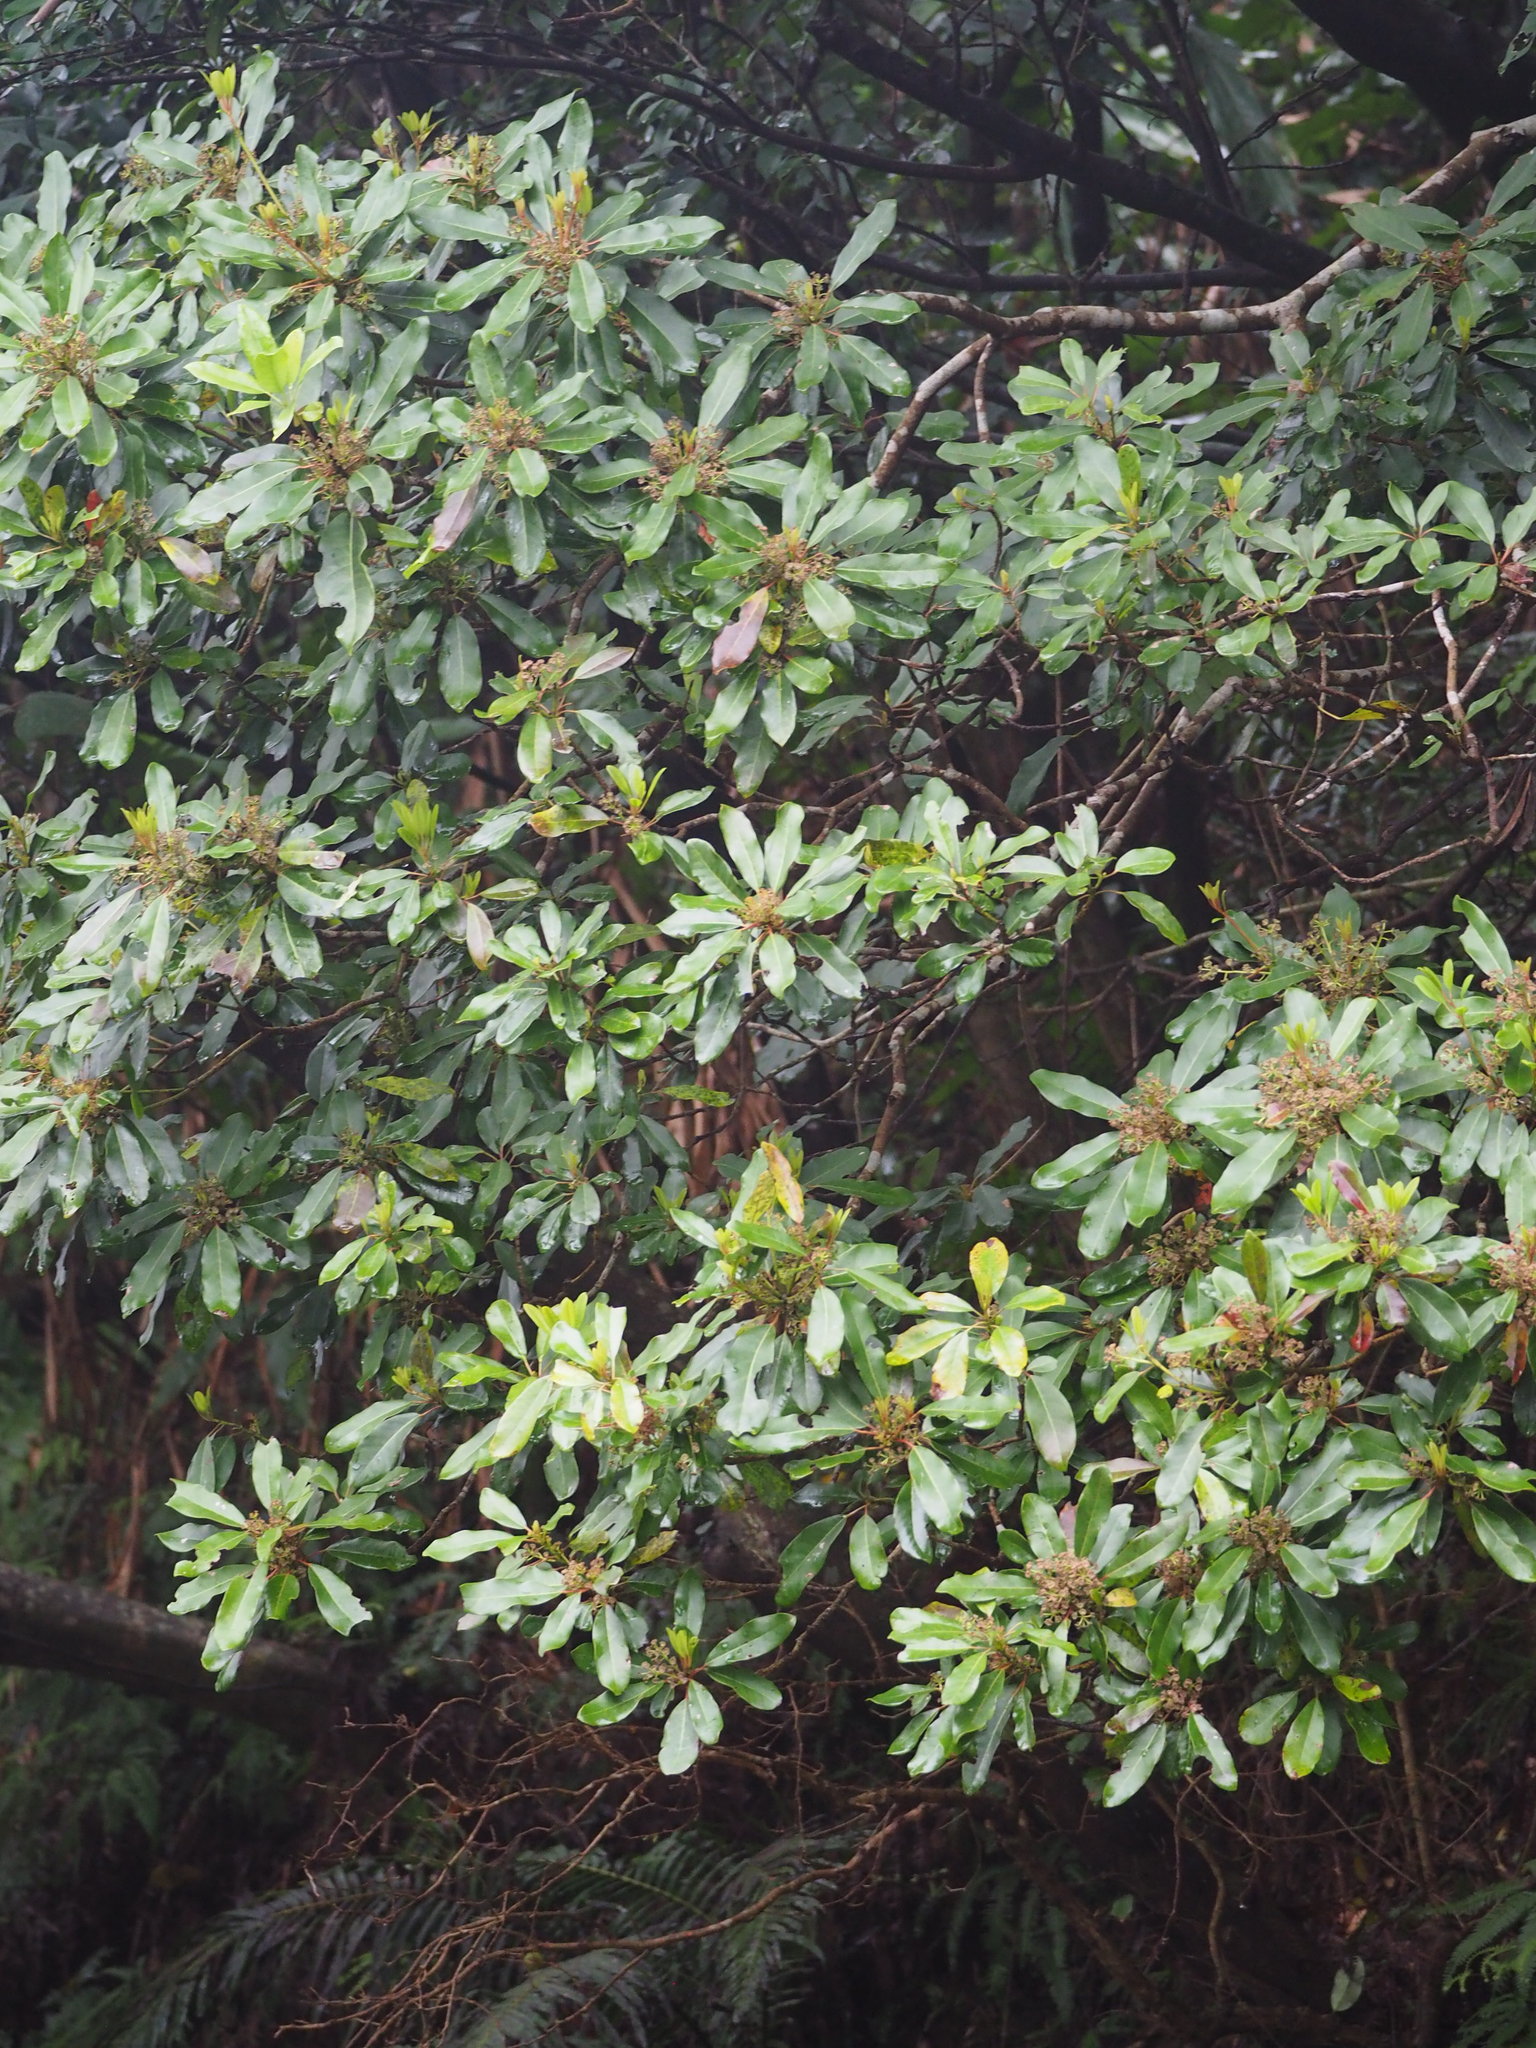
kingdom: Plantae
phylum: Tracheophyta
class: Magnoliopsida
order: Saxifragales
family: Daphniphyllaceae
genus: Daphniphyllum
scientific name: Daphniphyllum pentandrum
